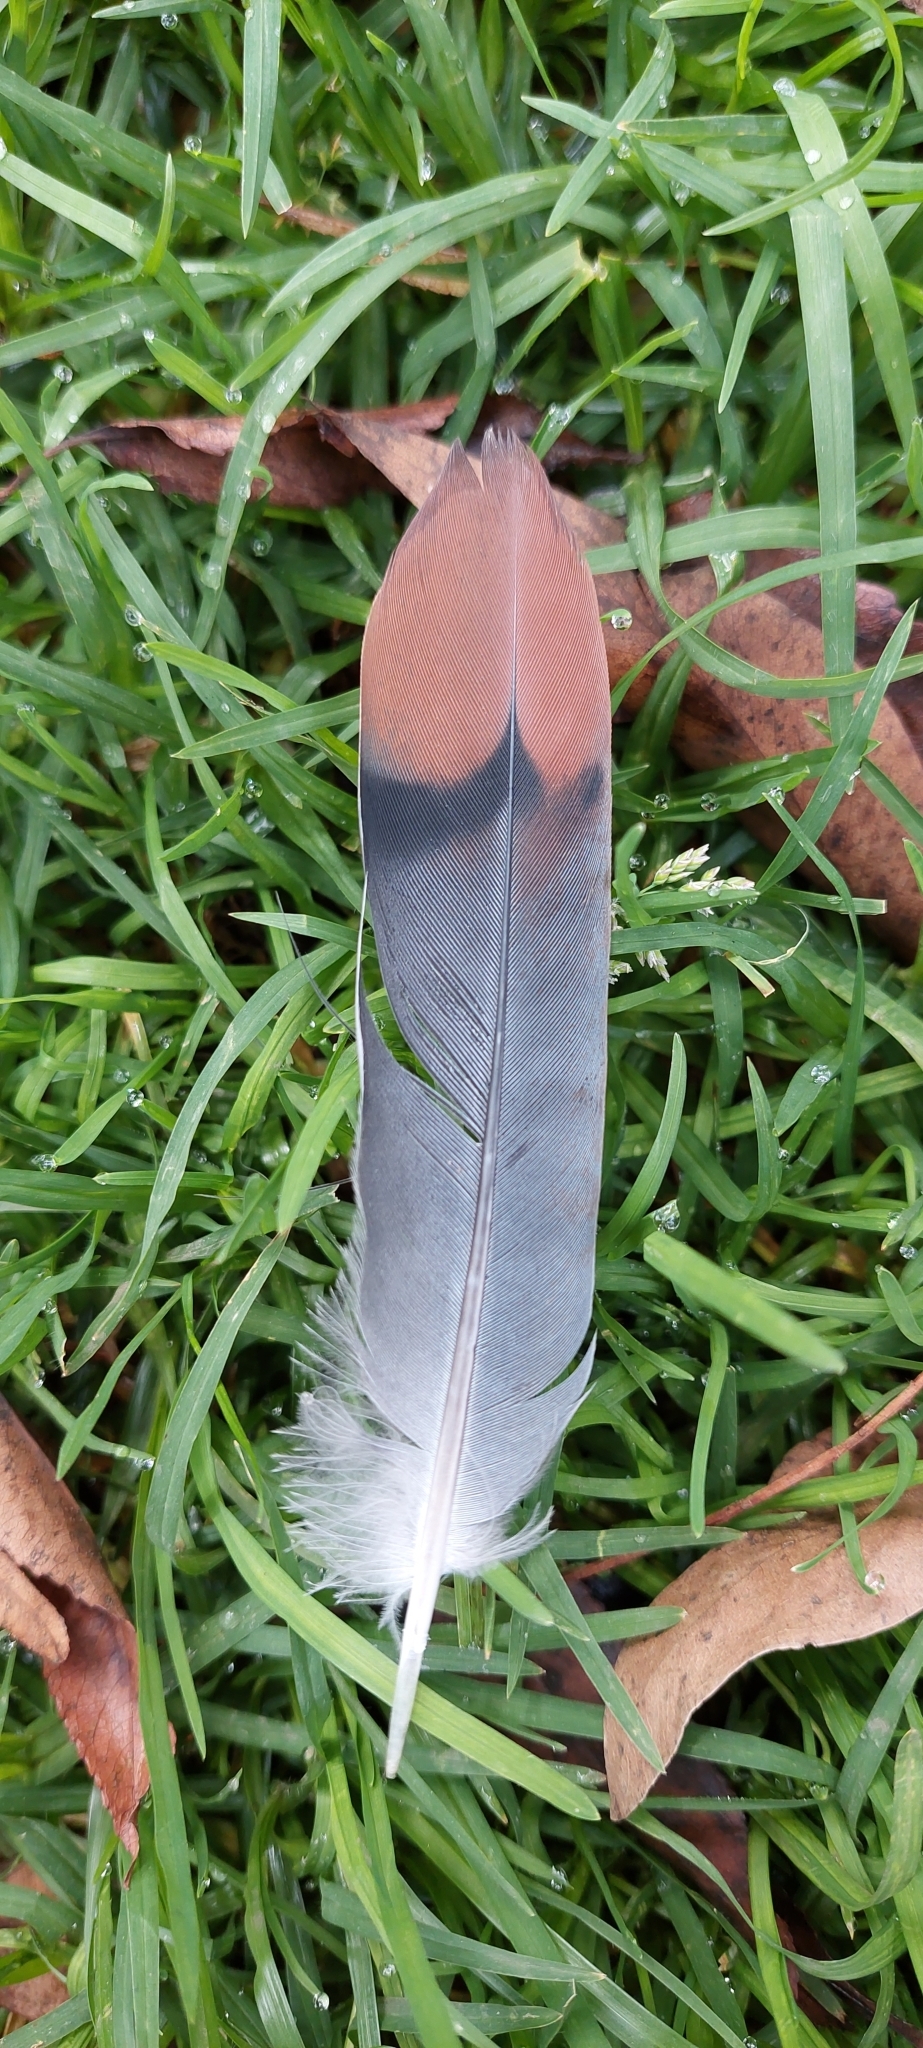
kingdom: Animalia
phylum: Chordata
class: Aves
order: Columbiformes
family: Columbidae
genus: Zenaida
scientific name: Zenaida auriculata
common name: Eared dove
